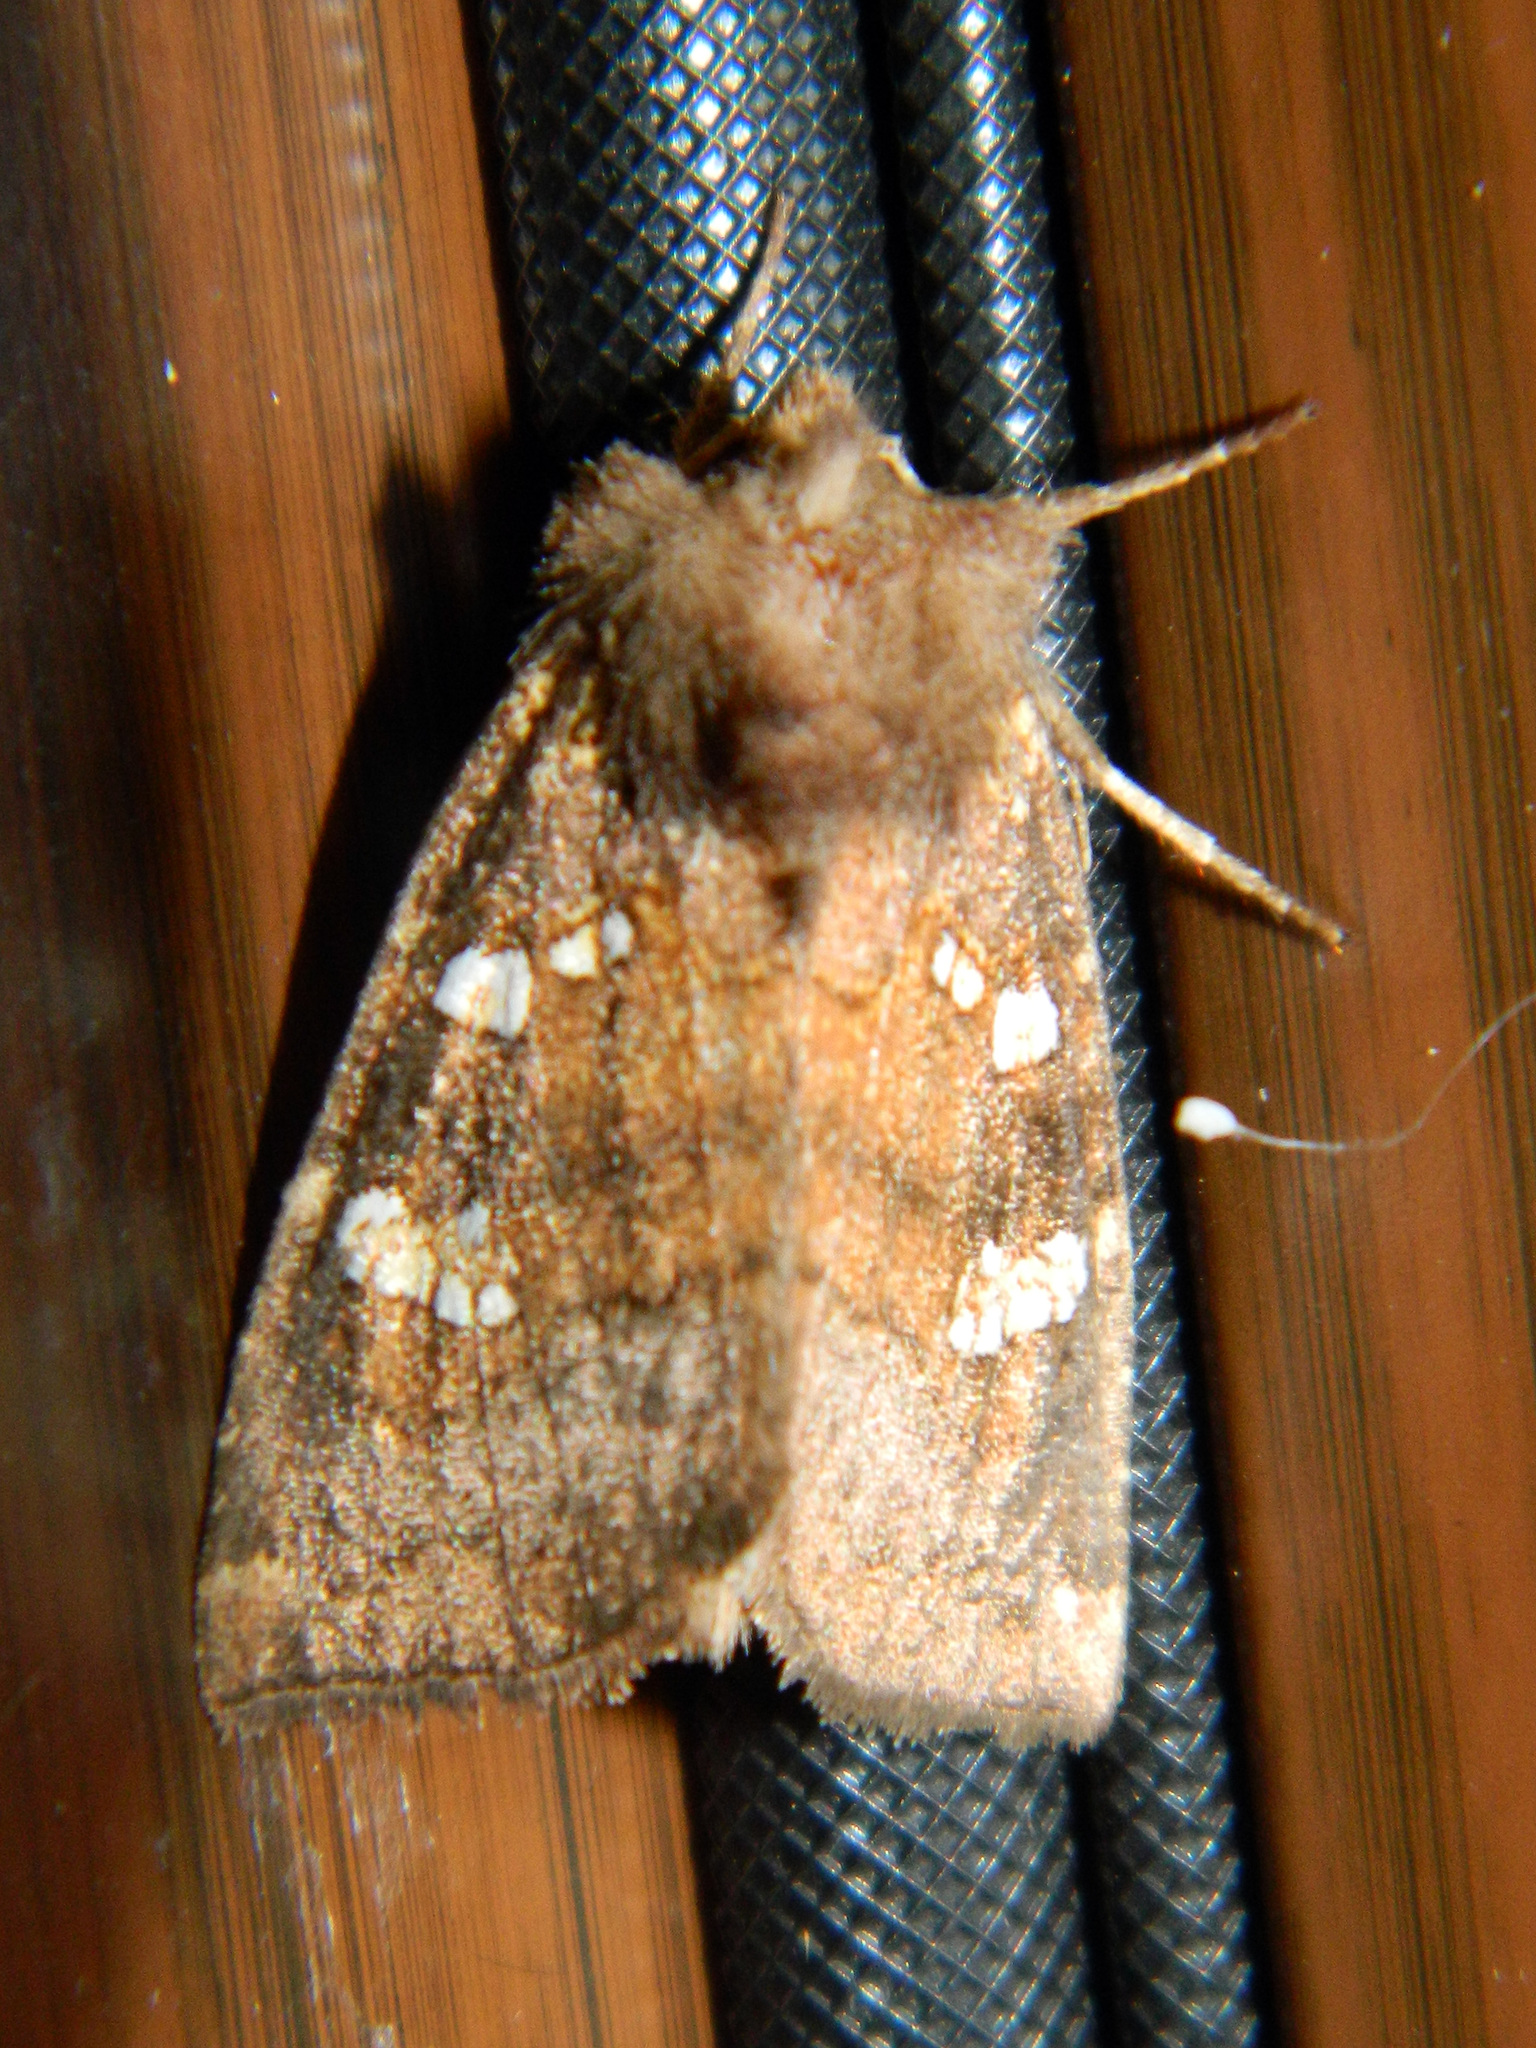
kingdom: Animalia
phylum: Arthropoda
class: Insecta
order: Lepidoptera
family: Noctuidae
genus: Papaipema
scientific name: Papaipema unimoda
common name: Meadow rue borer moth
